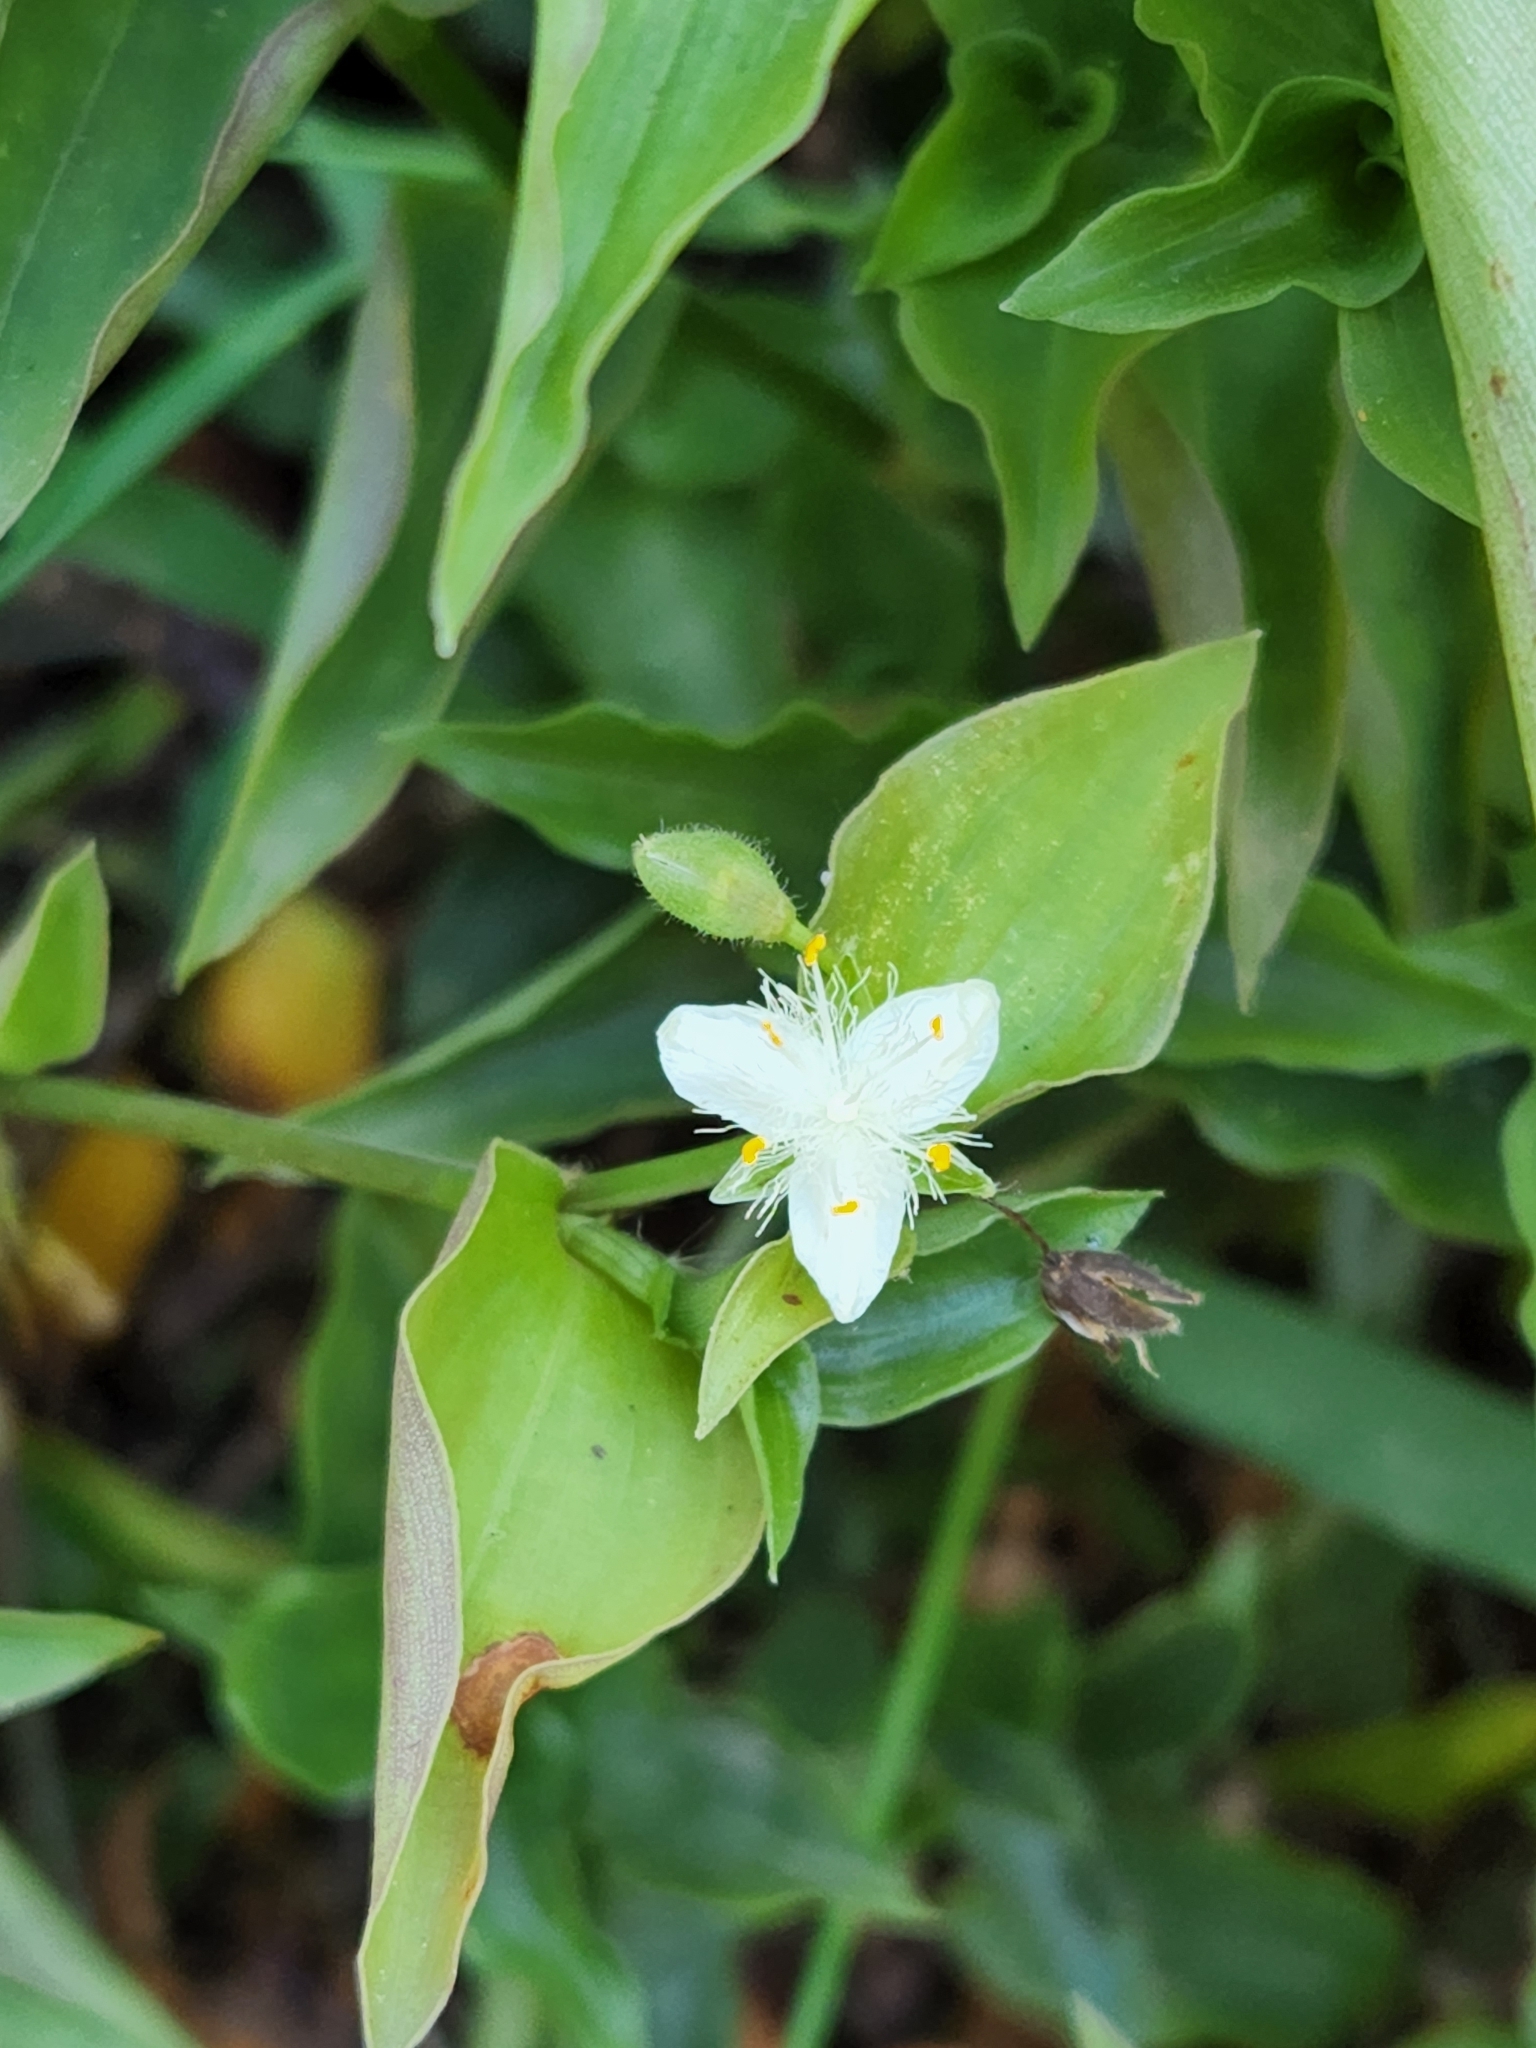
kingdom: Plantae
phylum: Tracheophyta
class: Liliopsida
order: Commelinales
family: Commelinaceae
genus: Tradescantia
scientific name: Tradescantia fluminensis
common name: Wandering-jew
